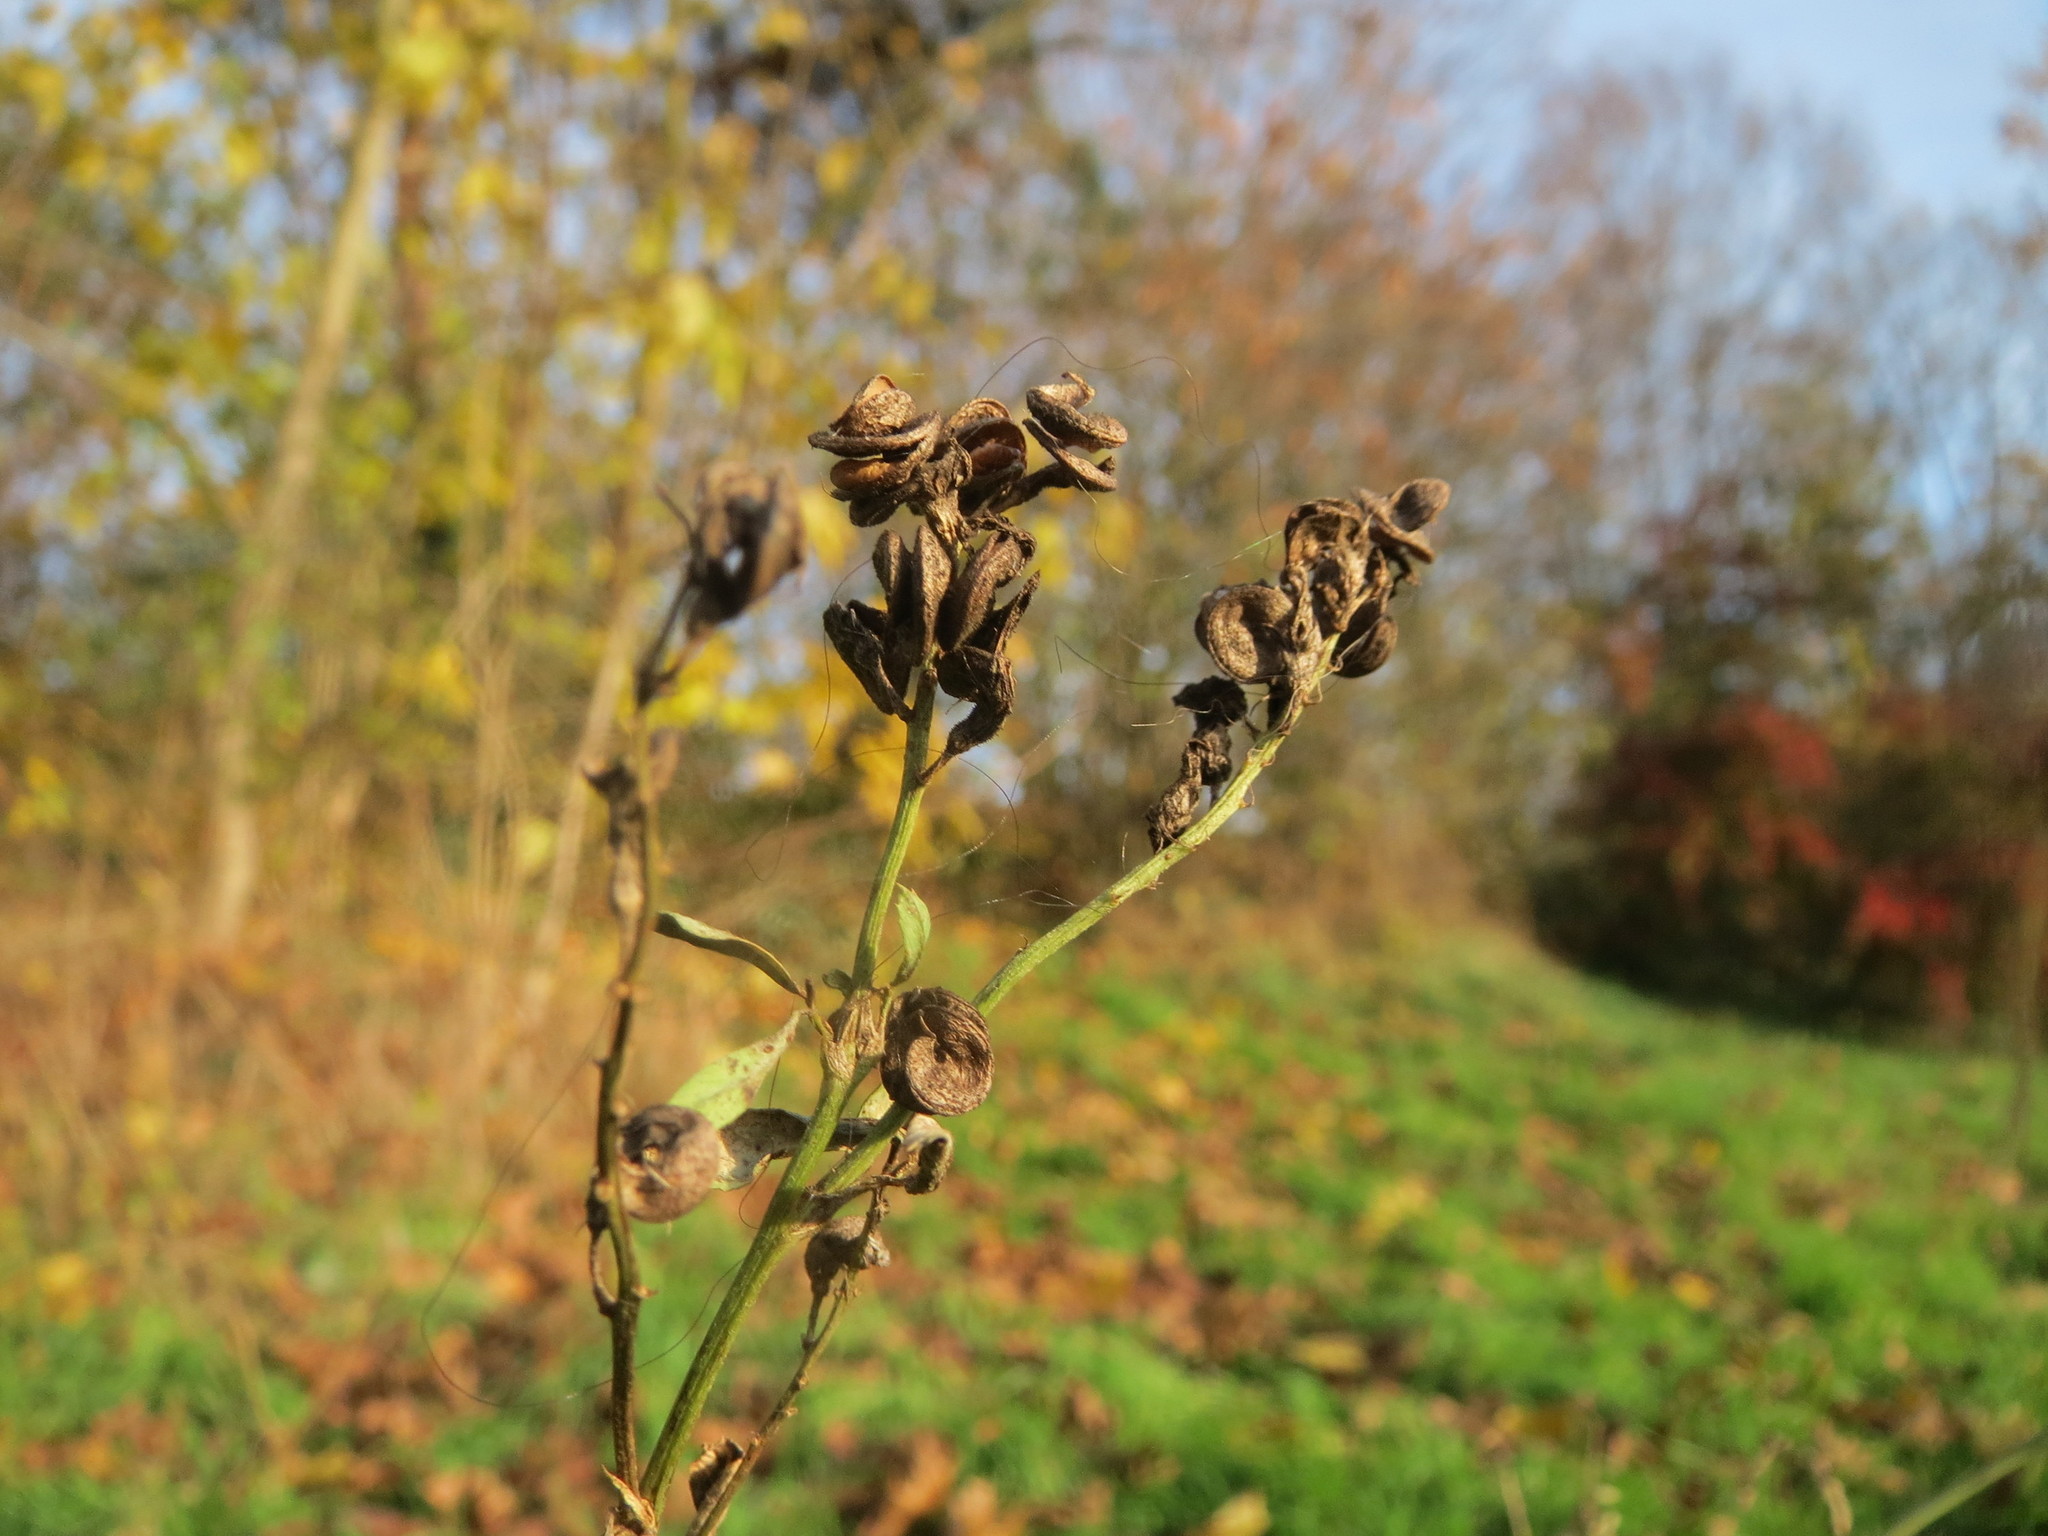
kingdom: Plantae
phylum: Tracheophyta
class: Magnoliopsida
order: Fabales
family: Fabaceae
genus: Medicago
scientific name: Medicago sativa
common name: Alfalfa
